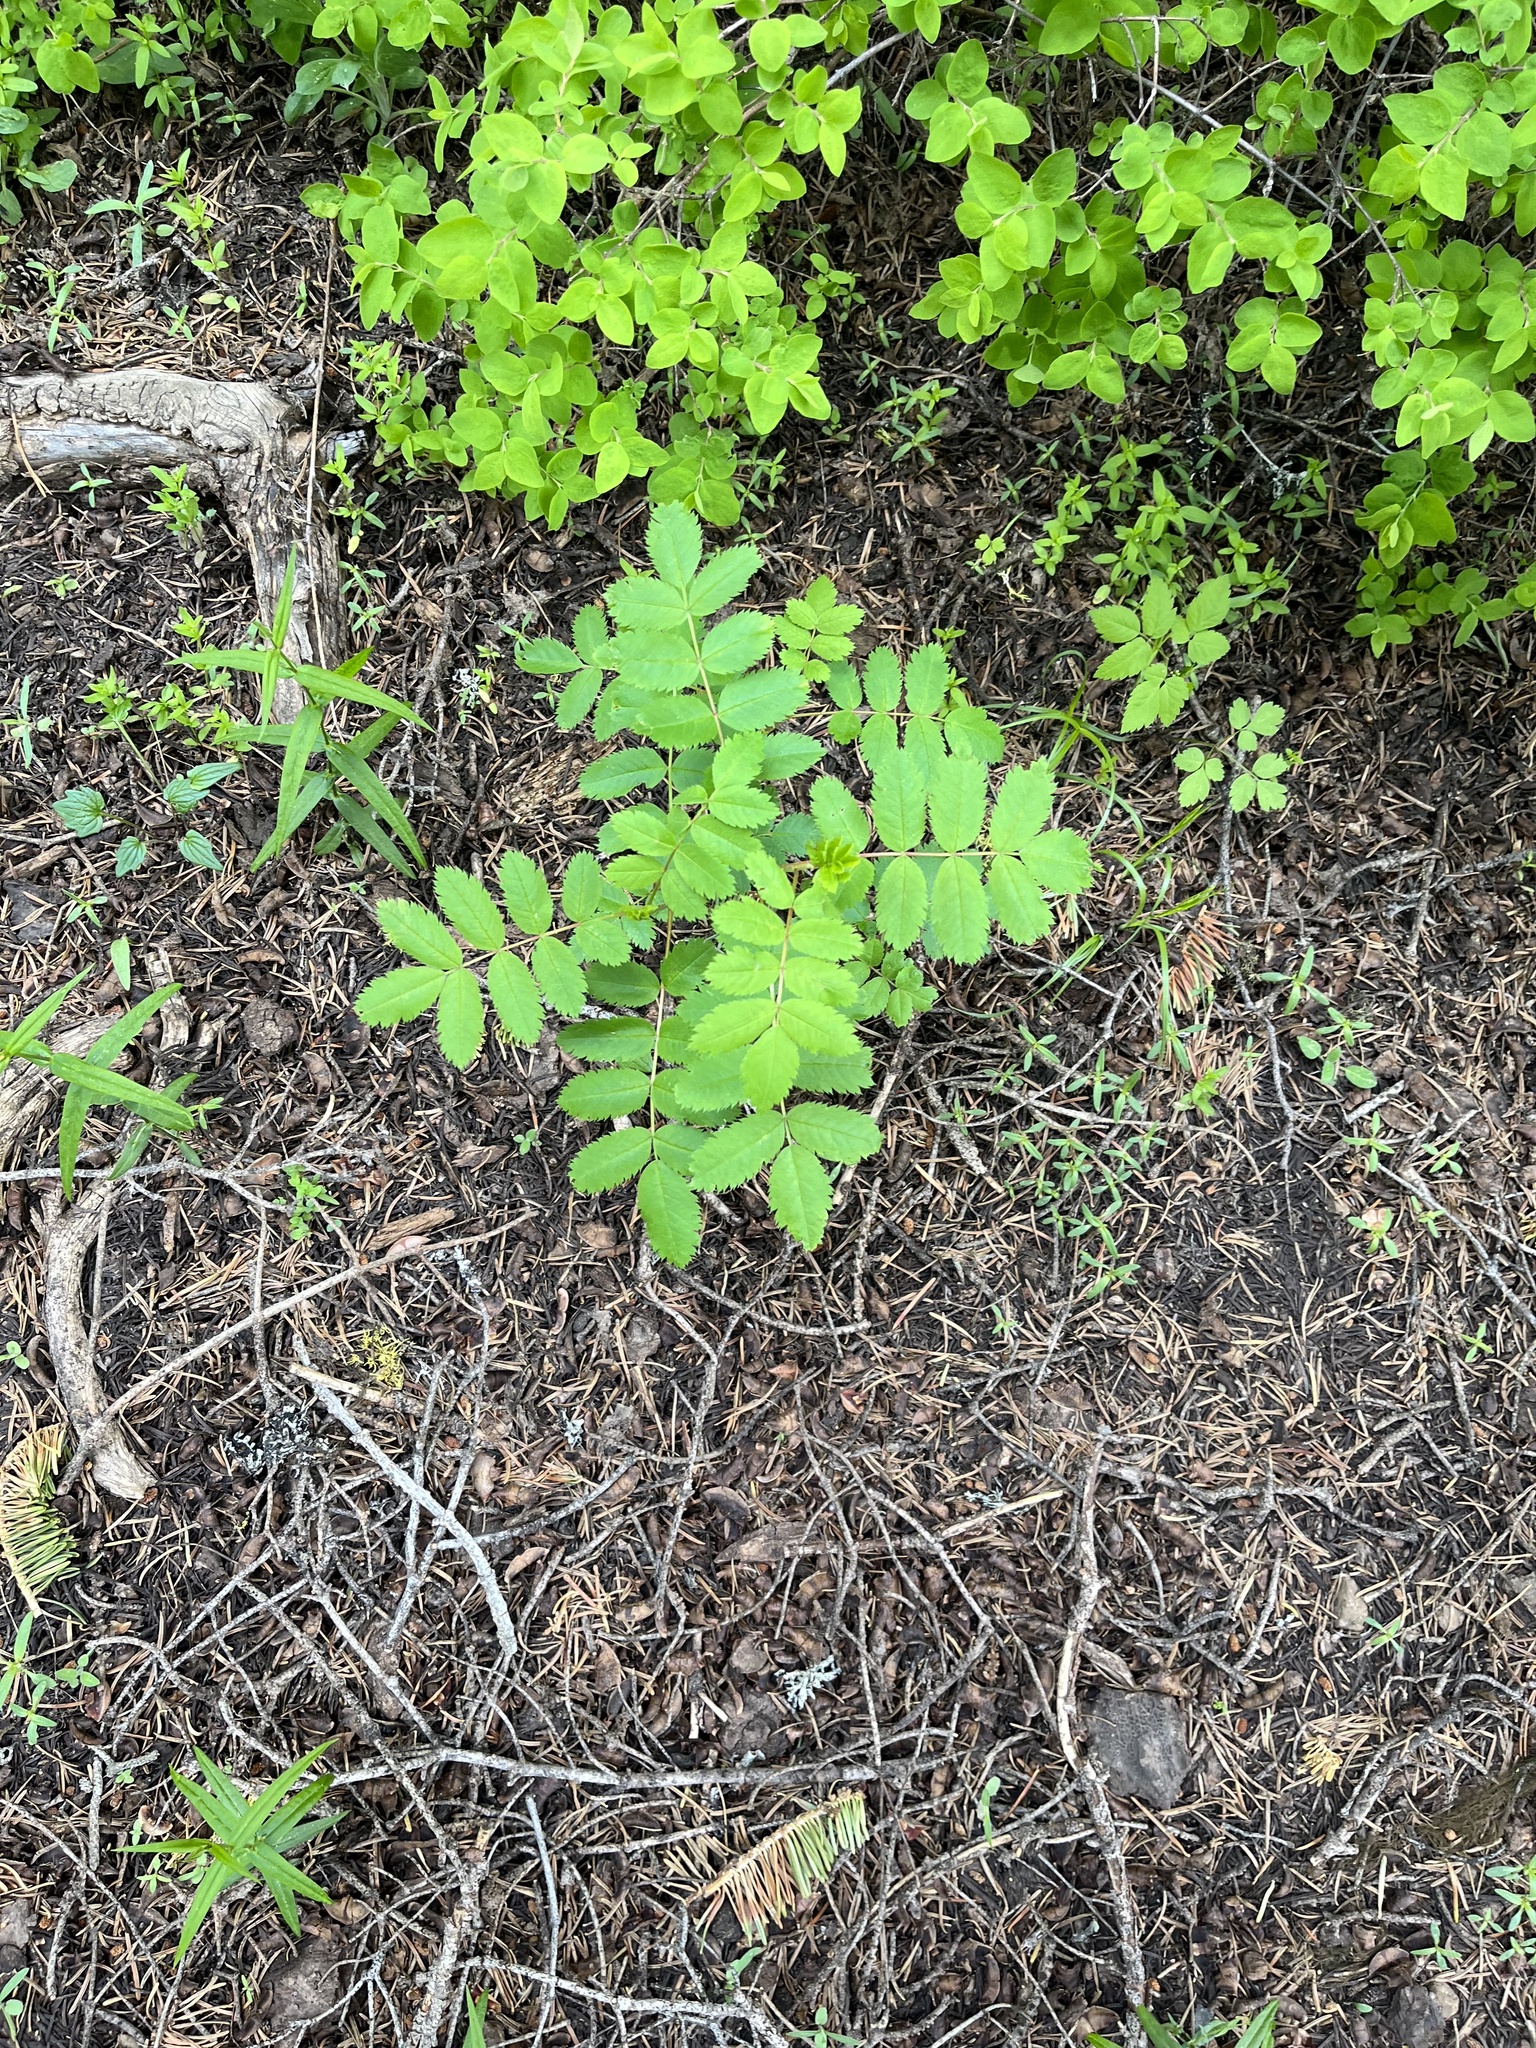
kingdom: Plantae
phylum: Tracheophyta
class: Magnoliopsida
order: Rosales
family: Rosaceae
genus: Sorbus
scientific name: Sorbus scopulina
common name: Greene's mountain-ash
